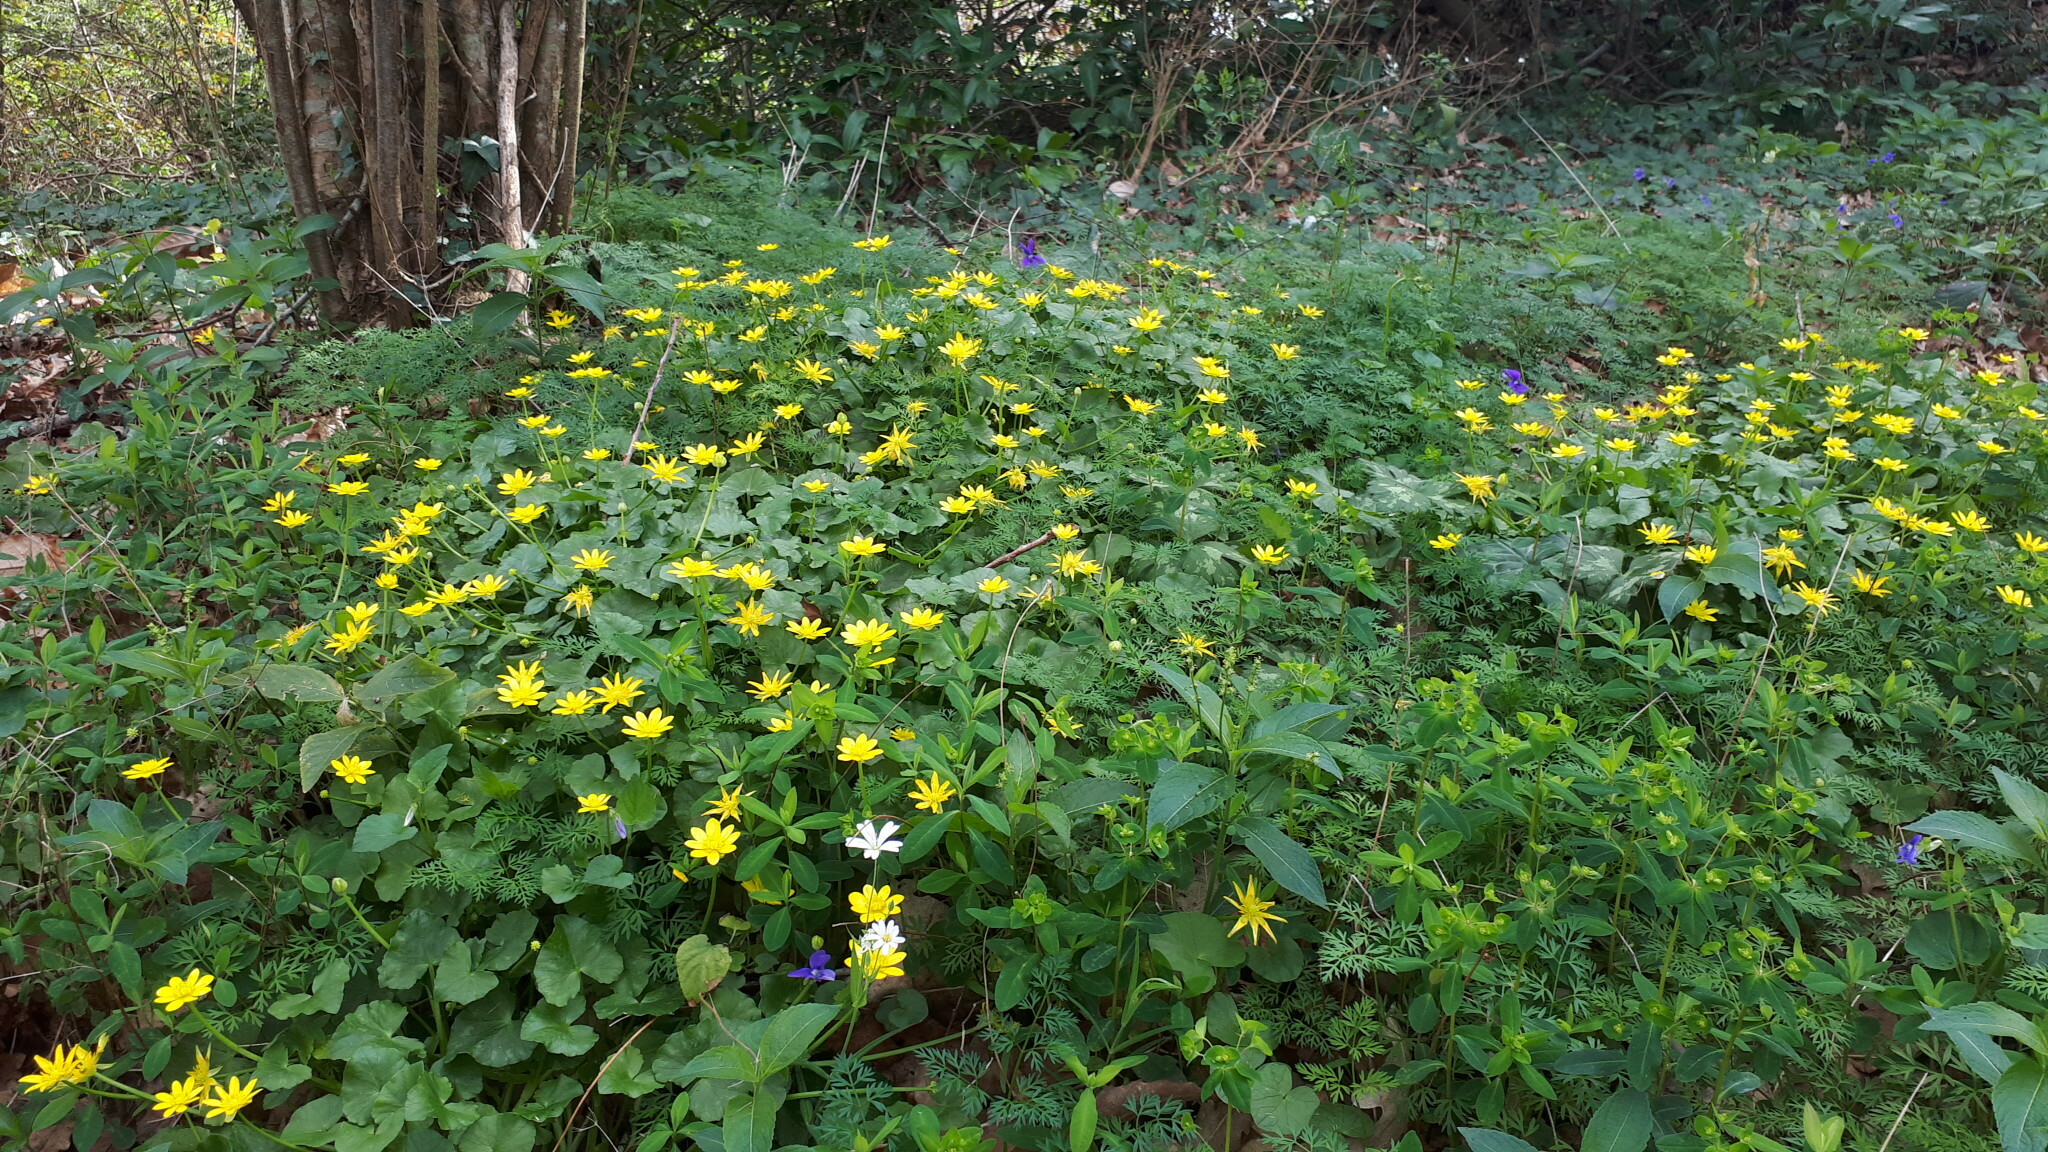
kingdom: Plantae
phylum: Tracheophyta
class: Magnoliopsida
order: Ranunculales
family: Ranunculaceae
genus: Ficaria
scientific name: Ficaria verna
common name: Lesser celandine
